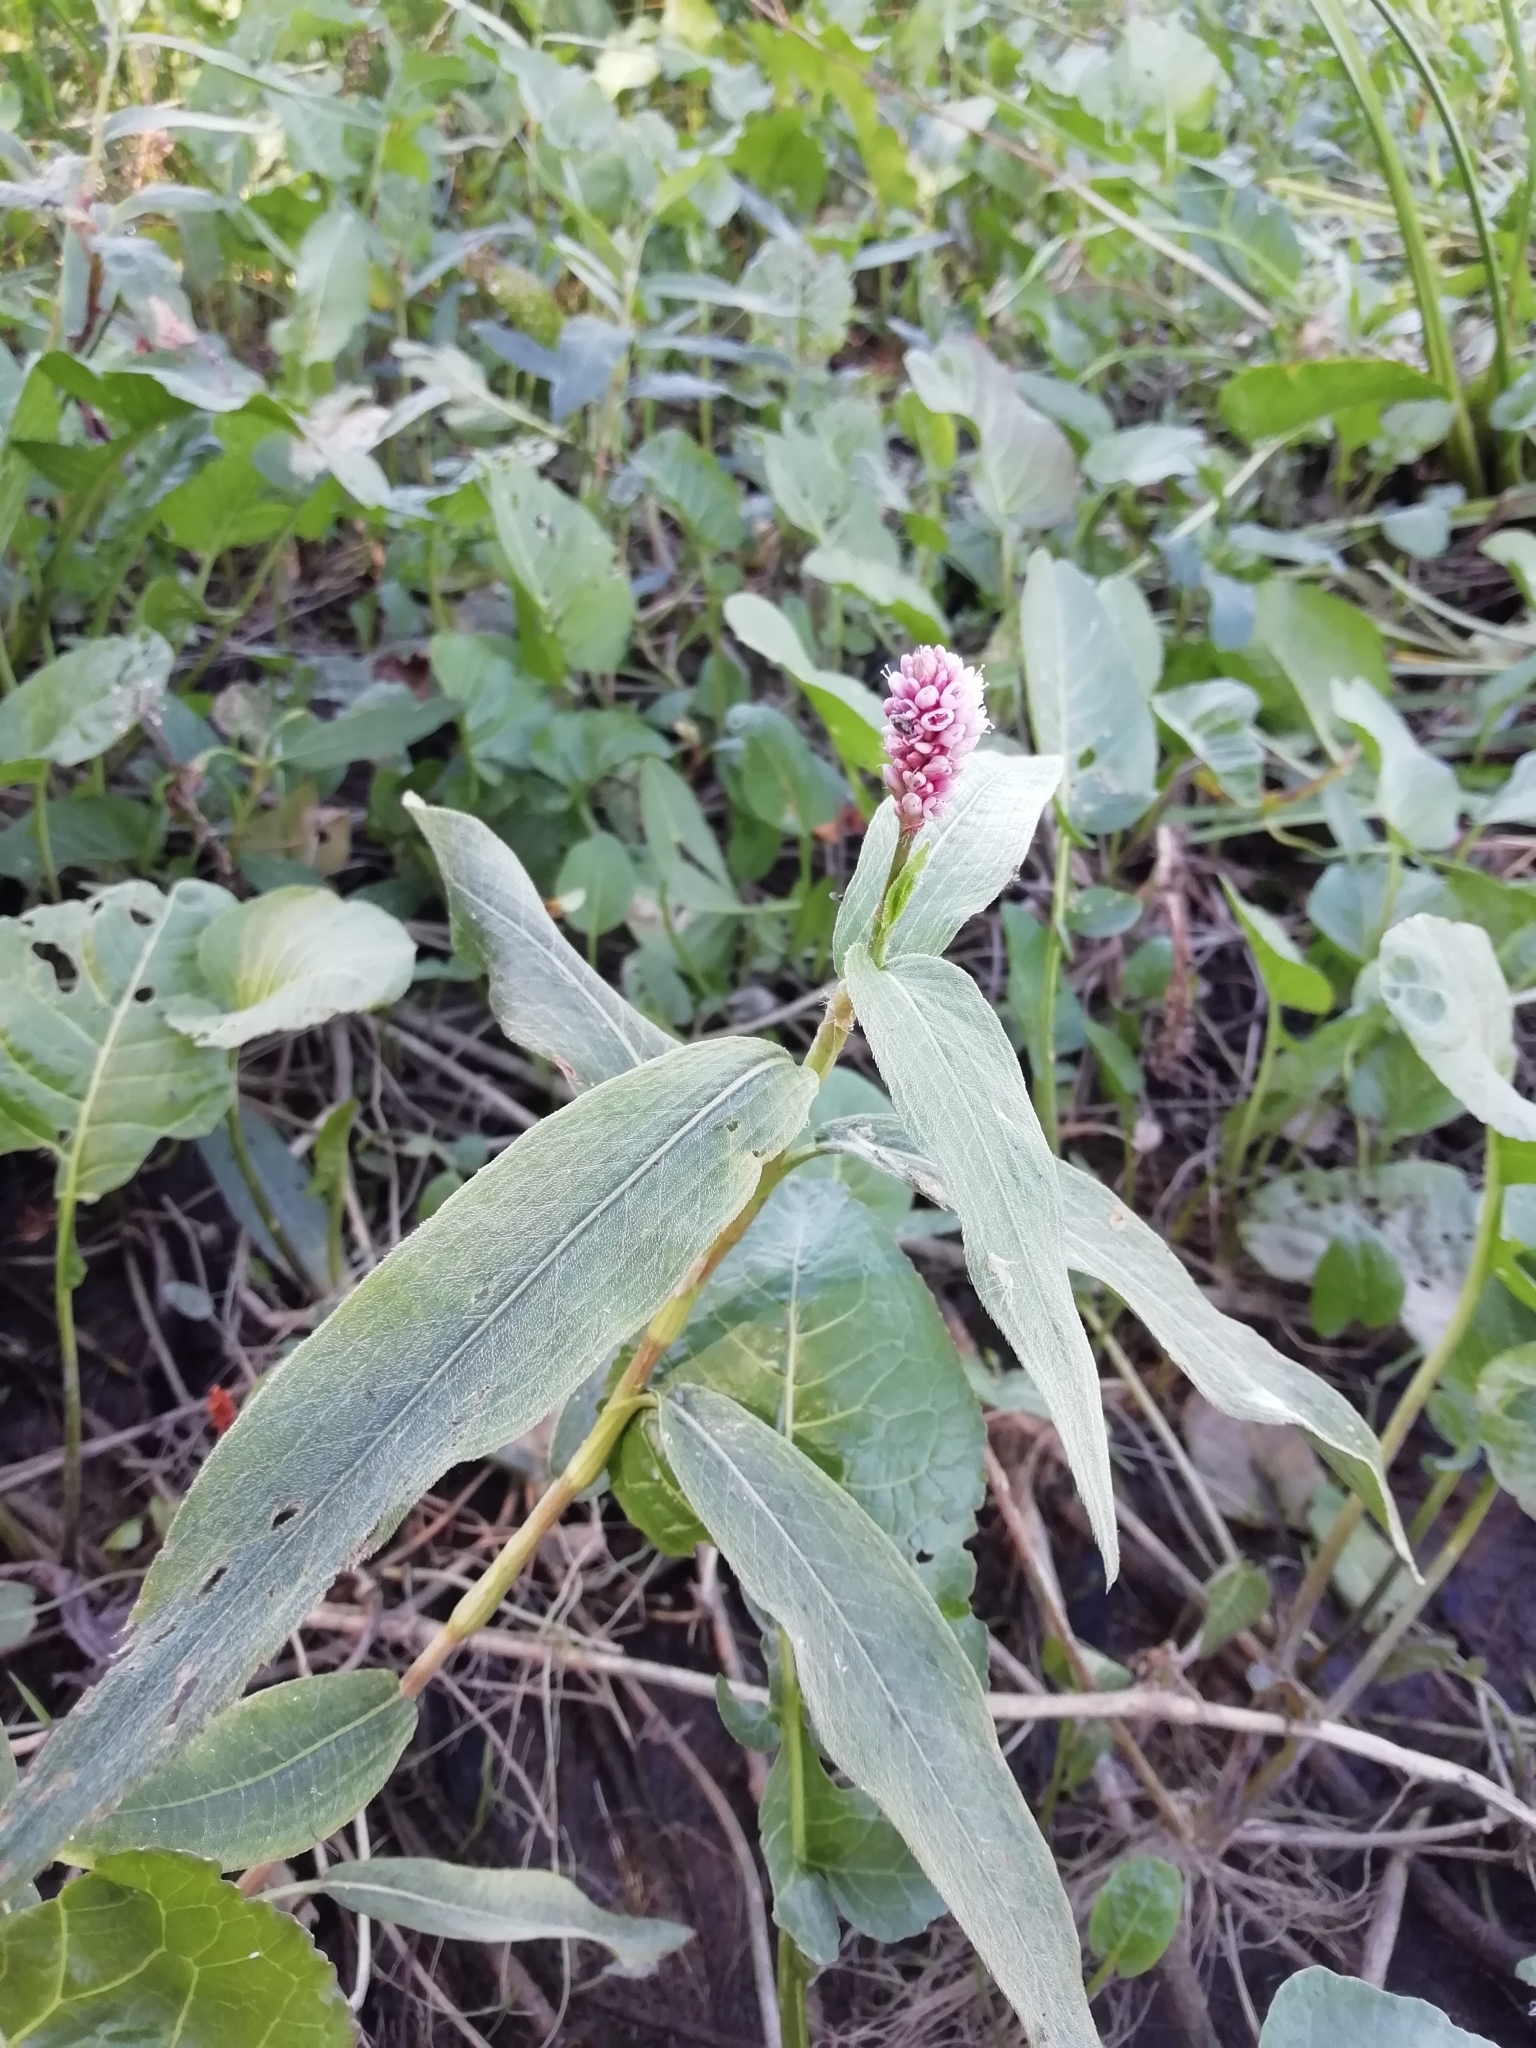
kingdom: Plantae
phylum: Tracheophyta
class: Magnoliopsida
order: Caryophyllales
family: Polygonaceae
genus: Persicaria
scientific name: Persicaria amphibia
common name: Amphibious bistort
